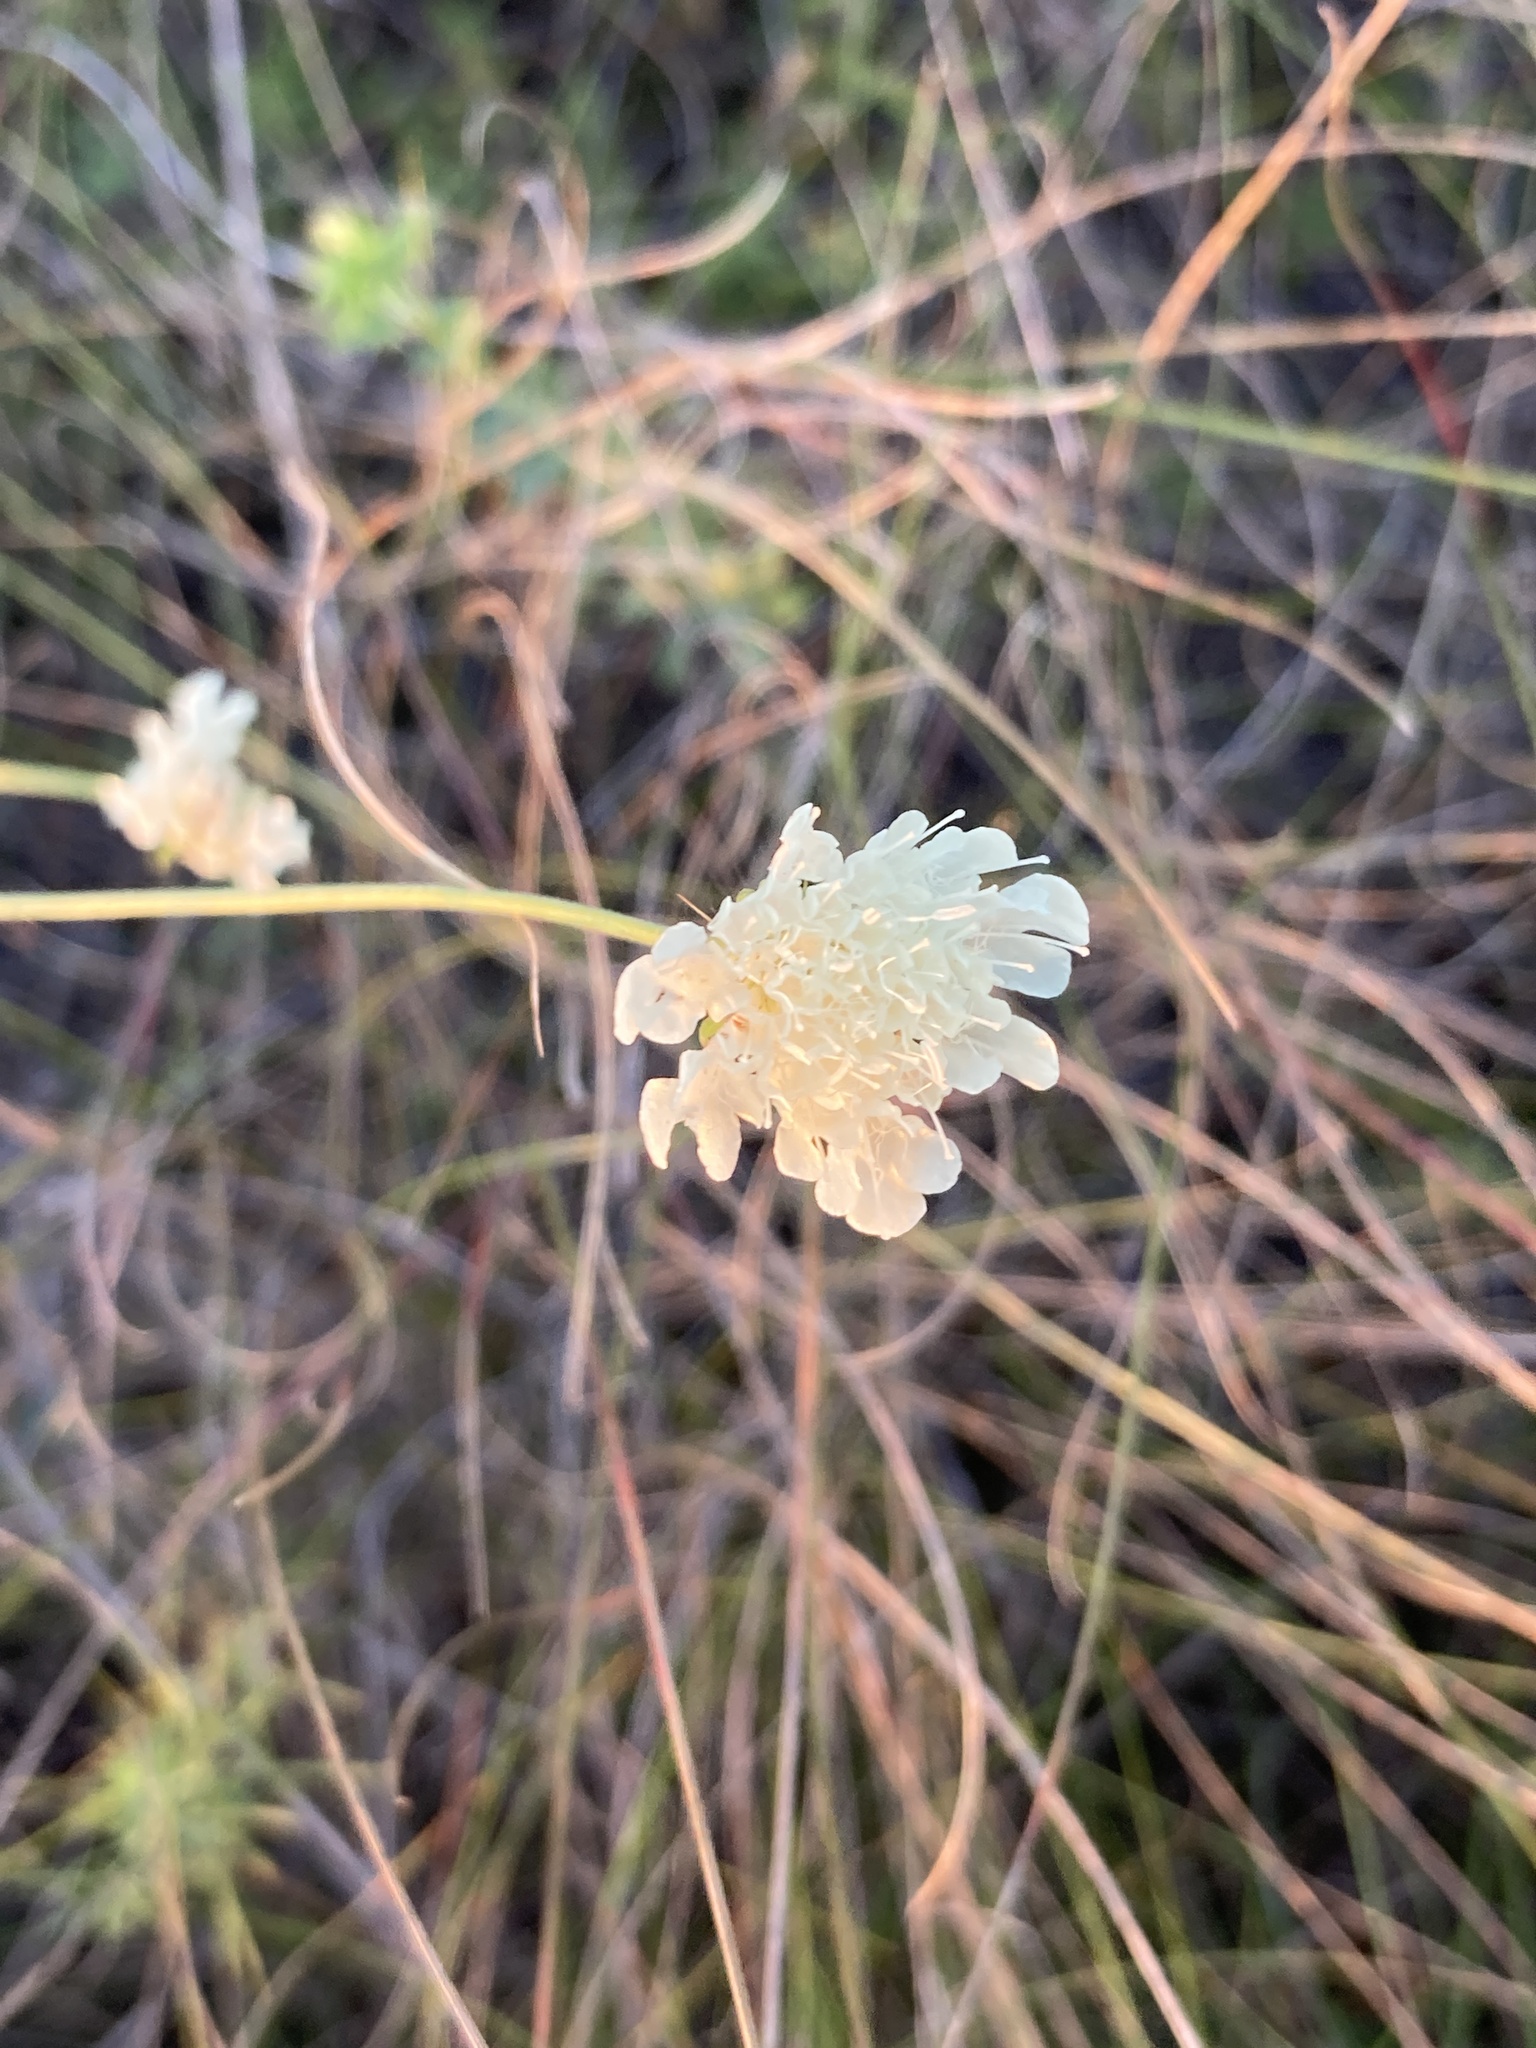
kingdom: Plantae
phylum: Tracheophyta
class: Magnoliopsida
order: Dipsacales
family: Caprifoliaceae
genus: Scabiosa
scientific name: Scabiosa ochroleuca
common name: Cream pincushions
